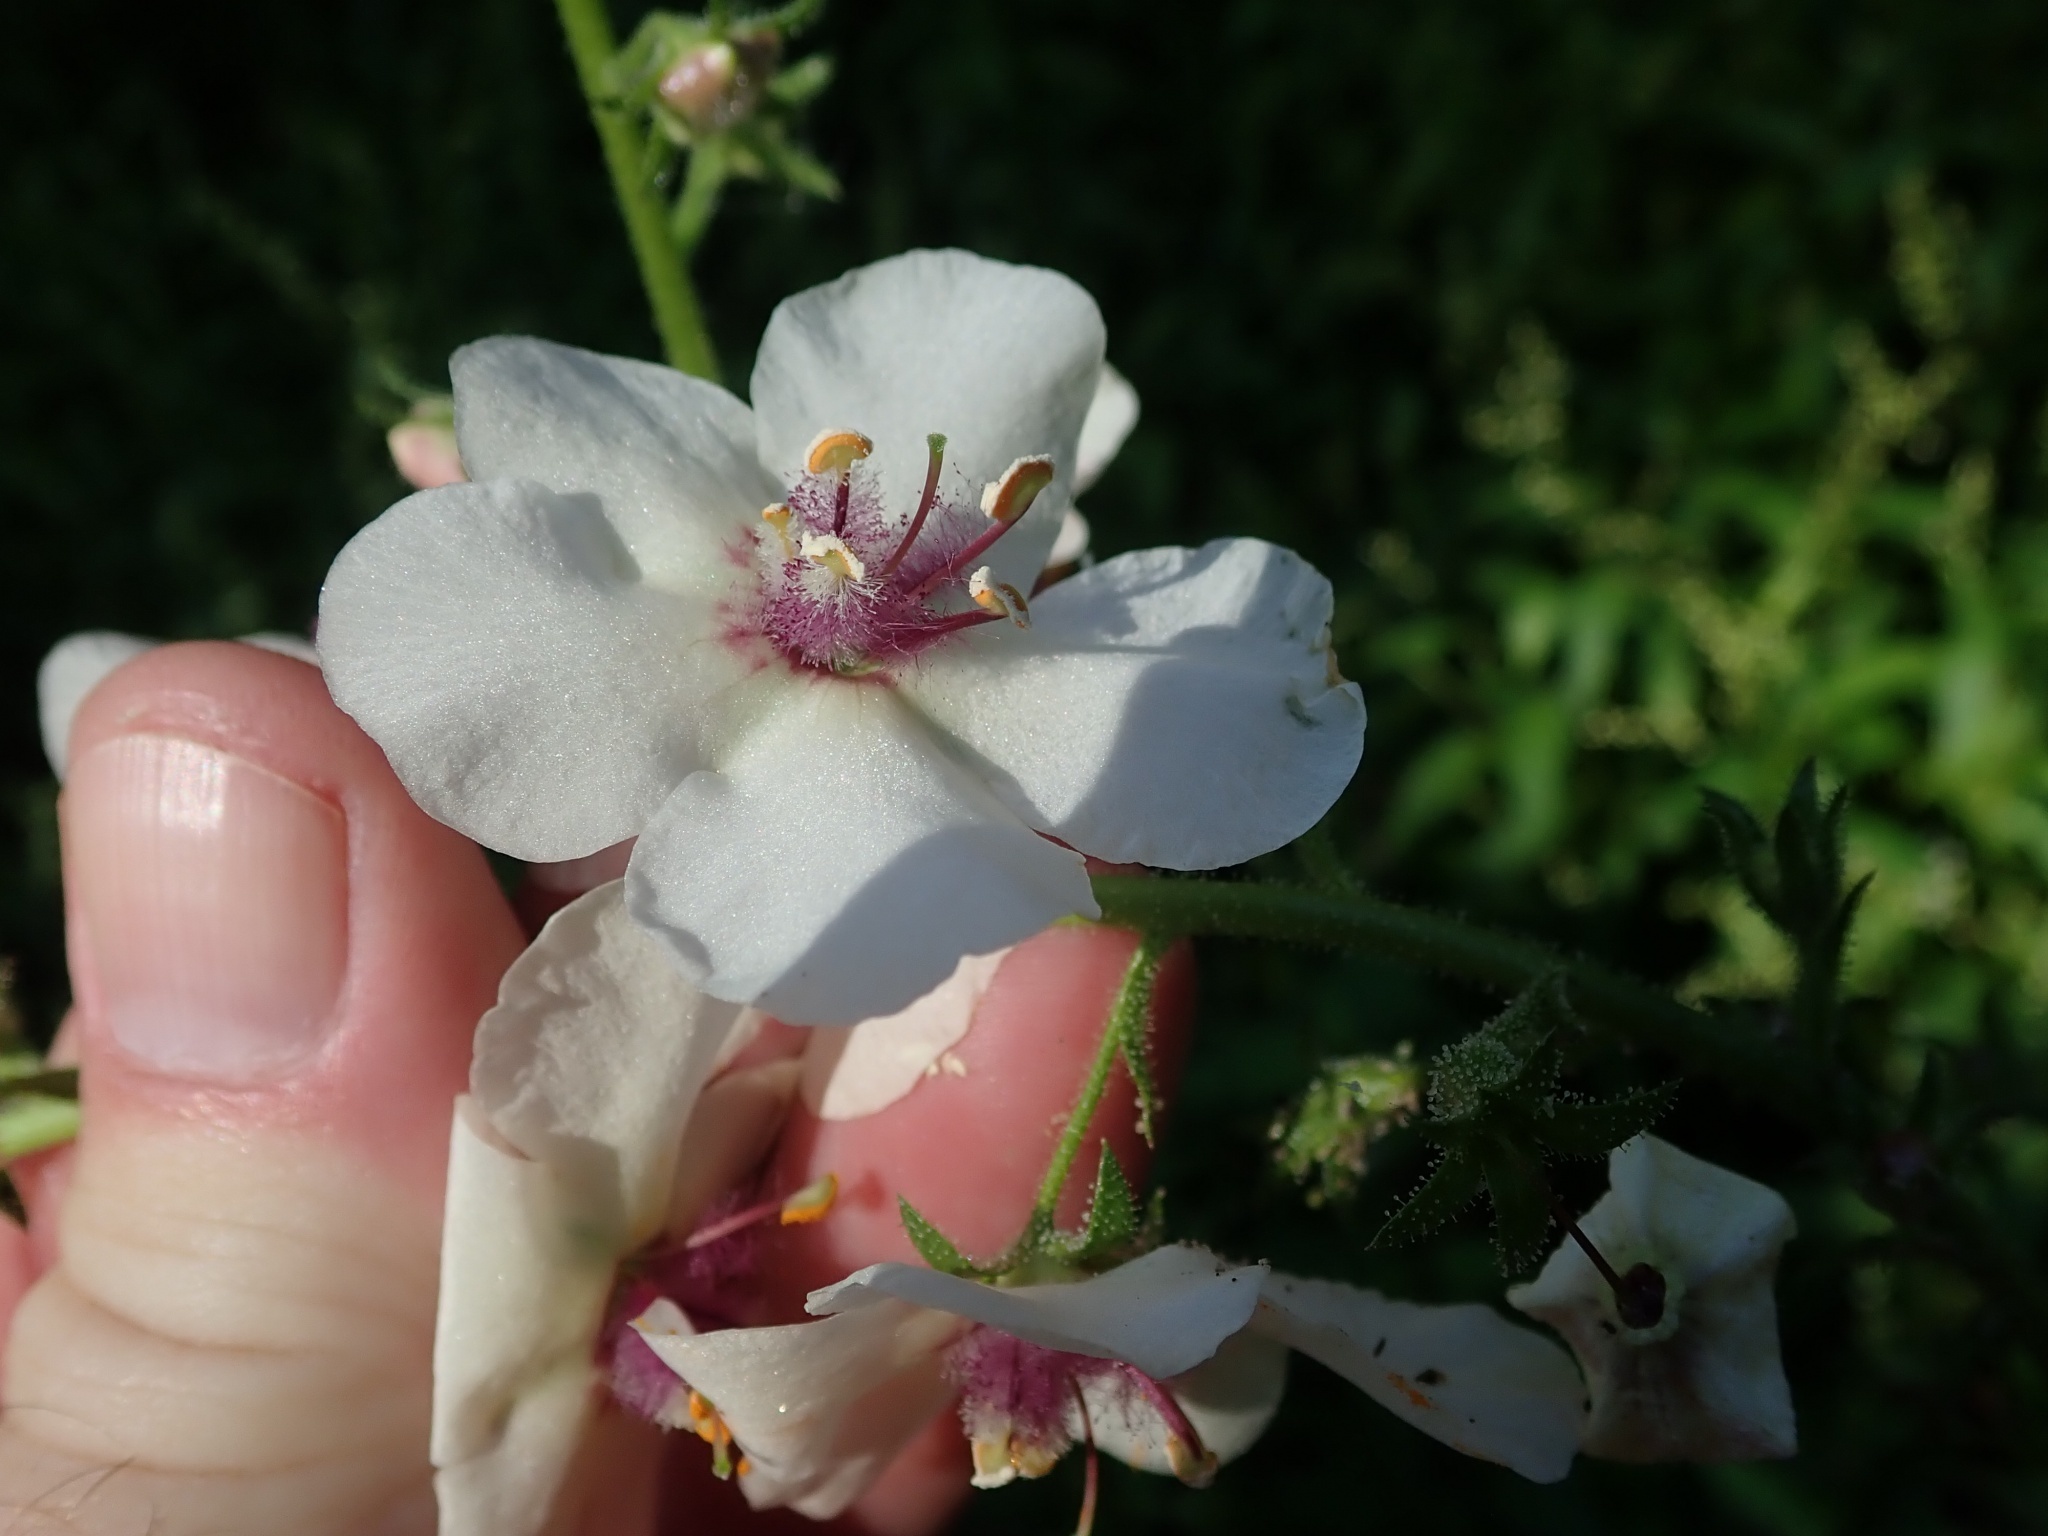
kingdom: Plantae
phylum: Tracheophyta
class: Magnoliopsida
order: Lamiales
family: Scrophulariaceae
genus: Verbascum
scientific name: Verbascum blattaria
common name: Moth mullein
